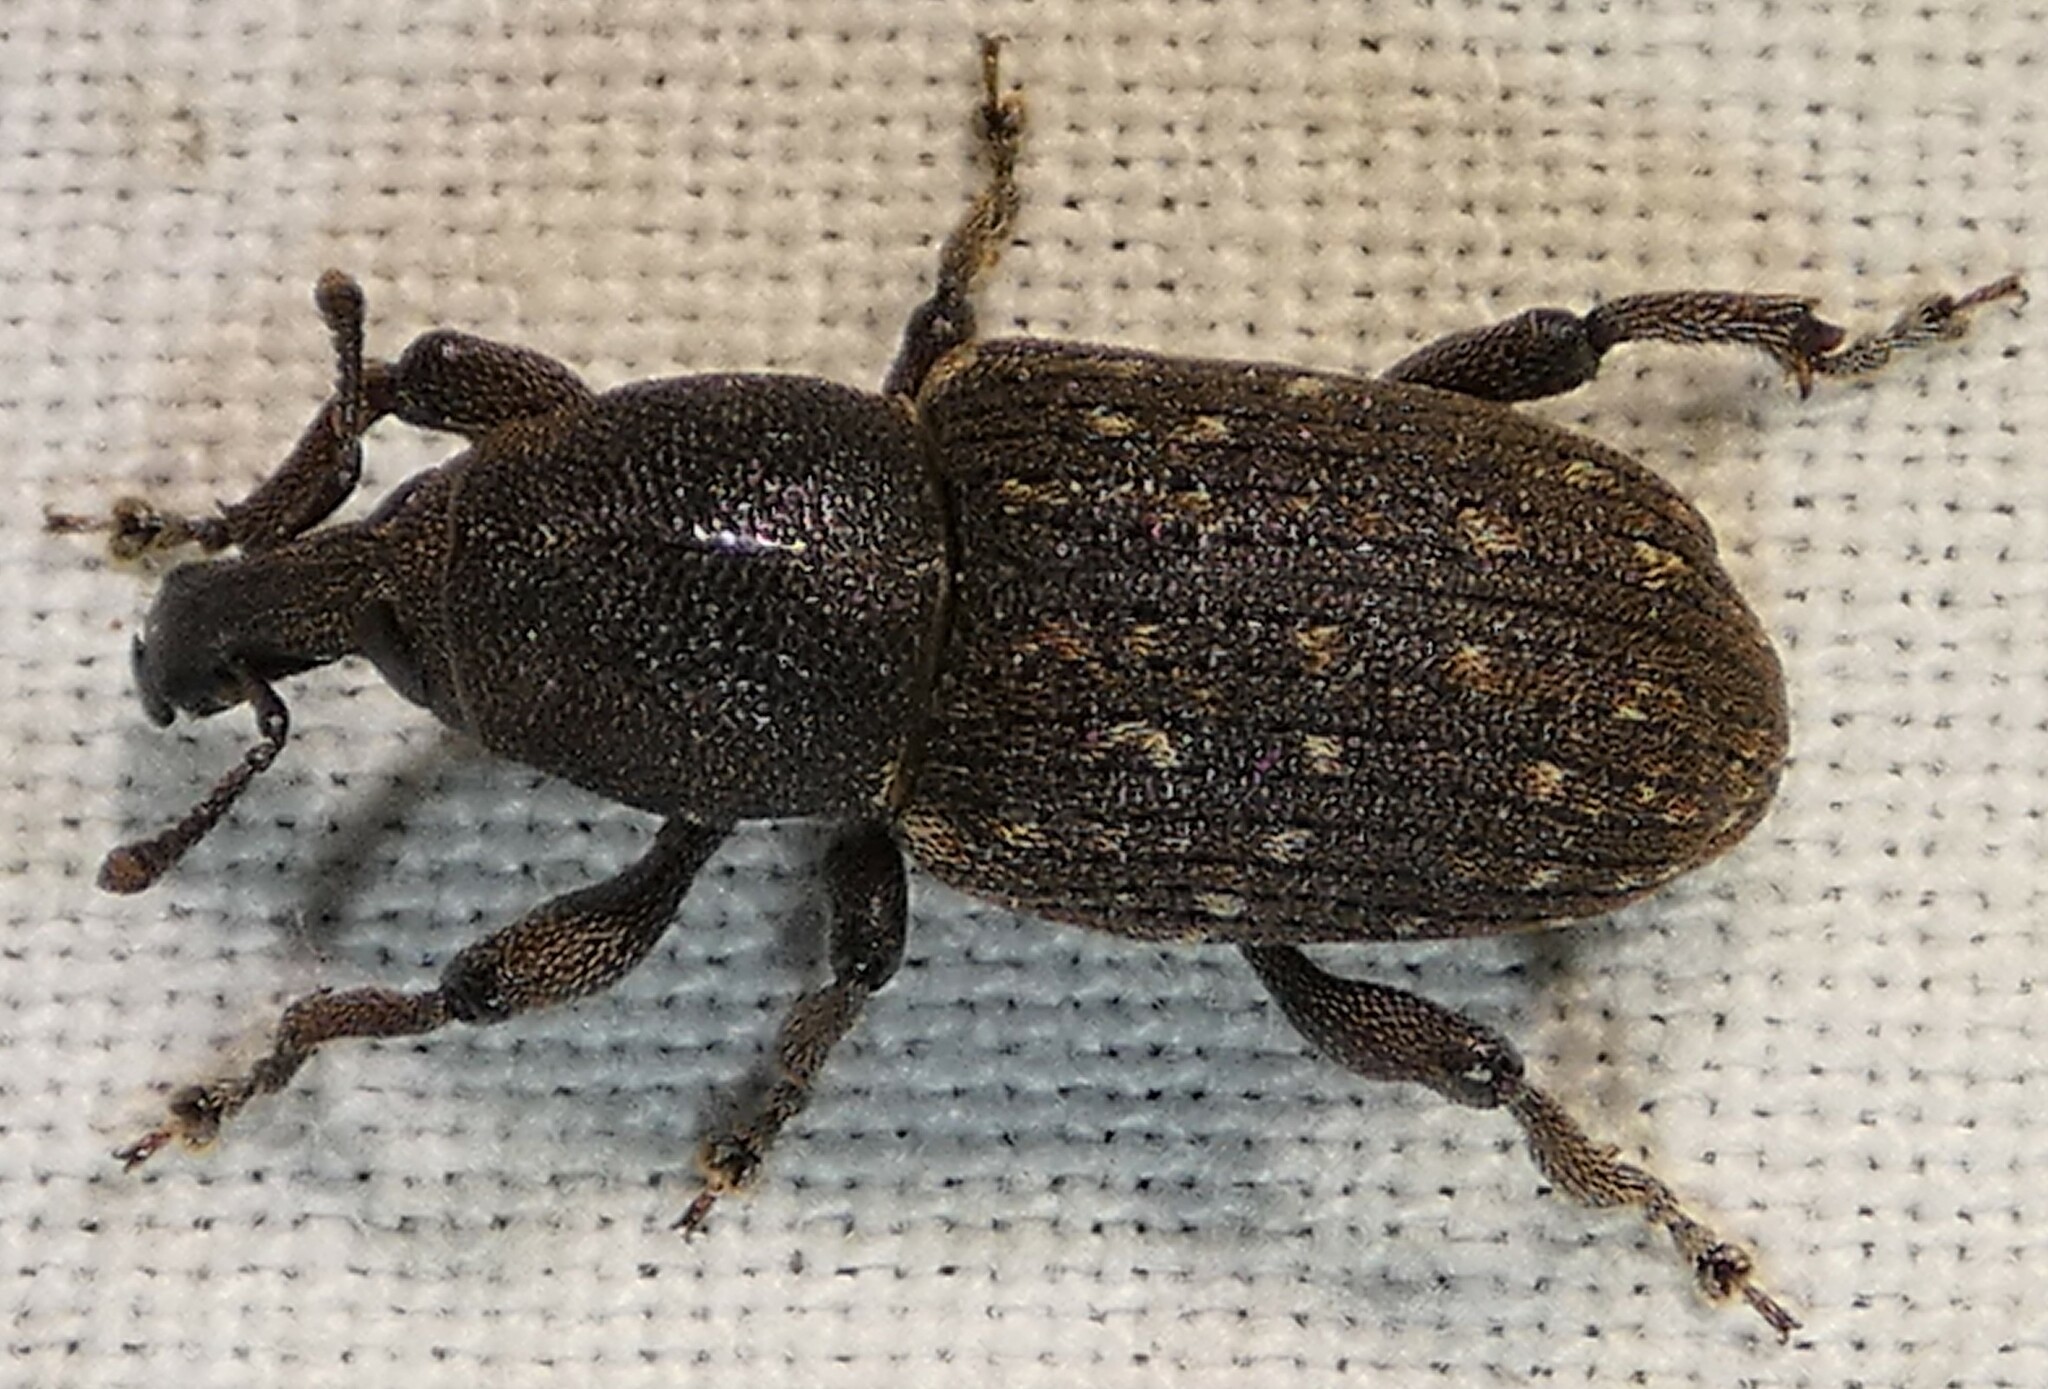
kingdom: Animalia
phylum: Arthropoda
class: Insecta
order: Coleoptera
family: Curculionidae
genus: Pachylobius
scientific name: Pachylobius picivorus
